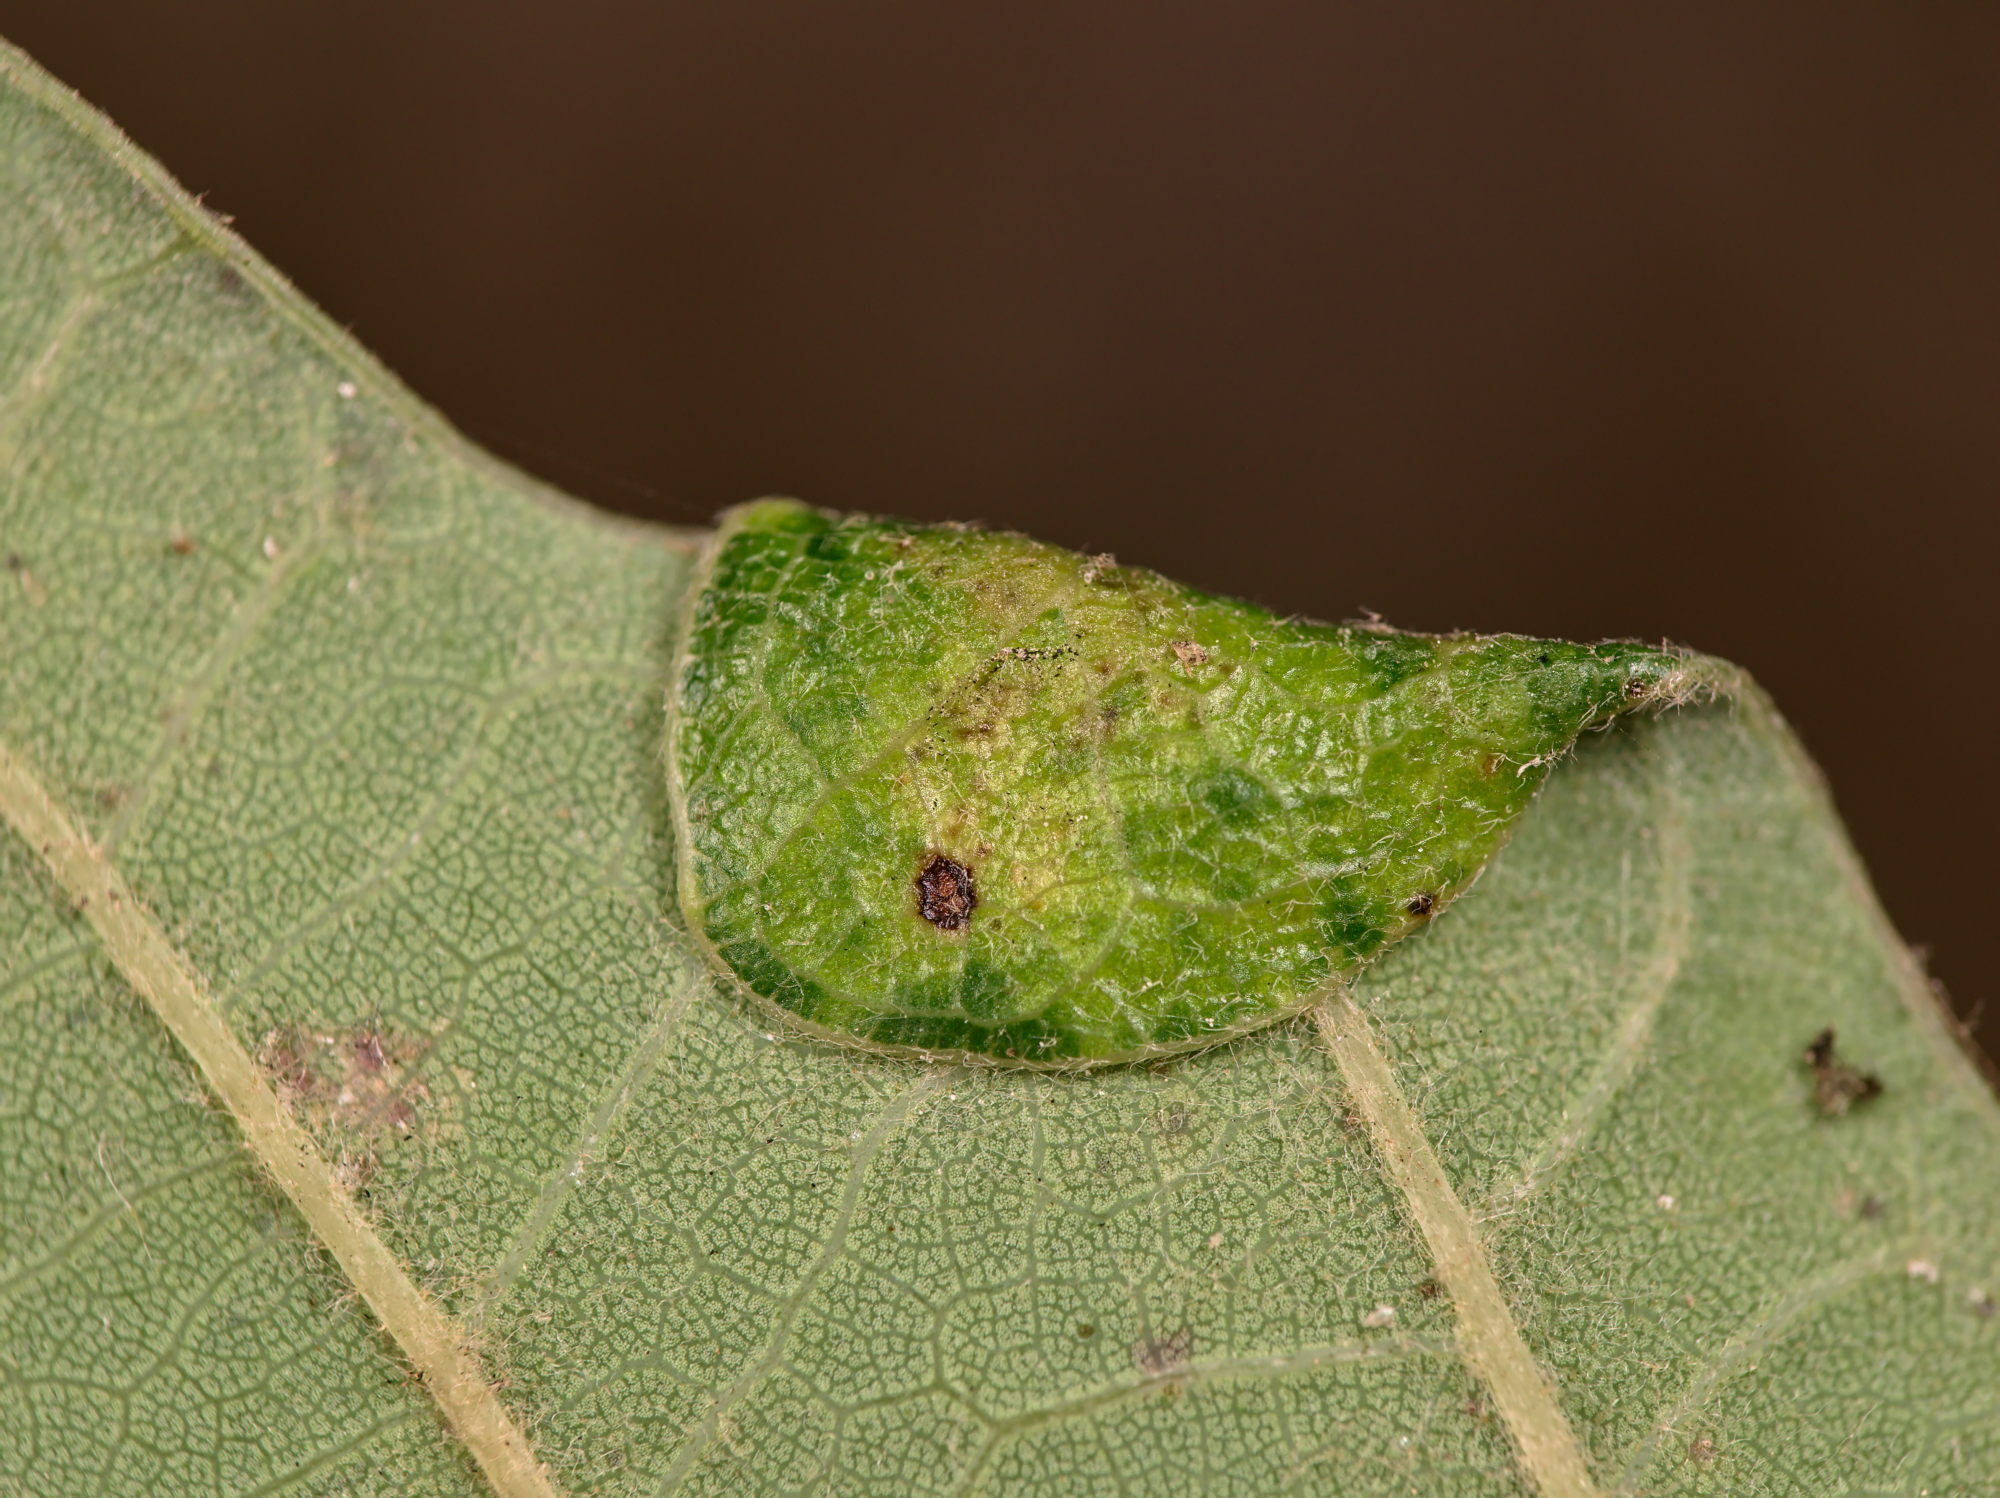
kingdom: Animalia
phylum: Arthropoda
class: Insecta
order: Diptera
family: Cecidomyiidae
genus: Macrodiplosis
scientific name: Macrodiplosis pustularis
